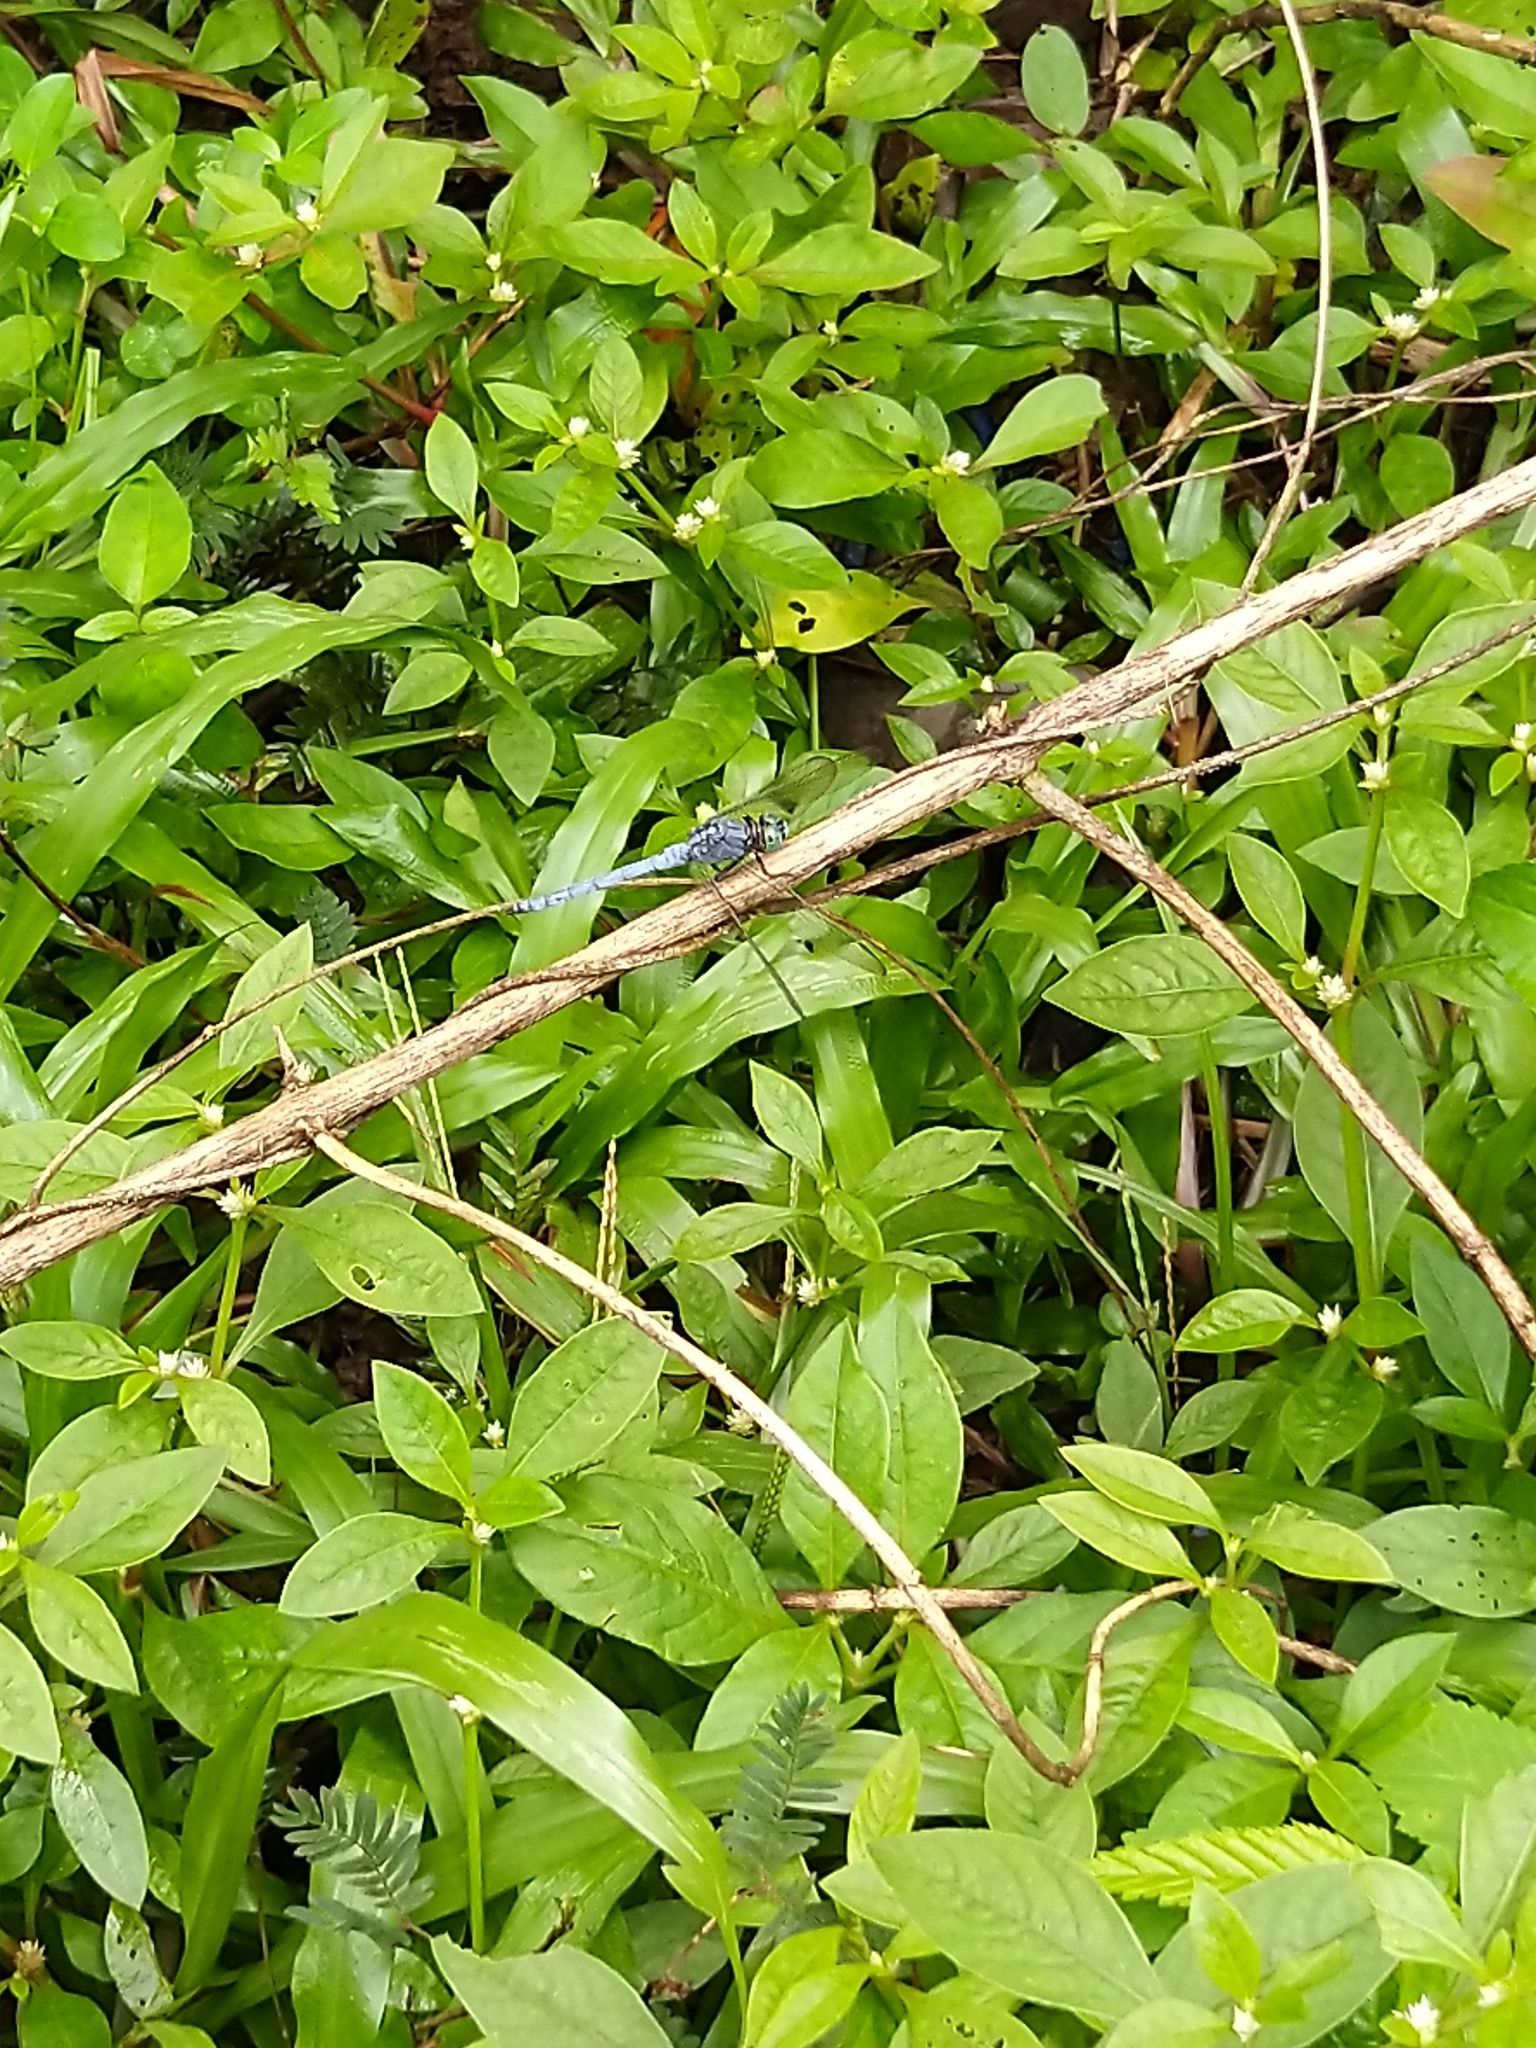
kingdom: Animalia
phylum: Arthropoda
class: Insecta
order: Odonata
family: Libellulidae
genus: Orthetrum
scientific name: Orthetrum luzonicum
